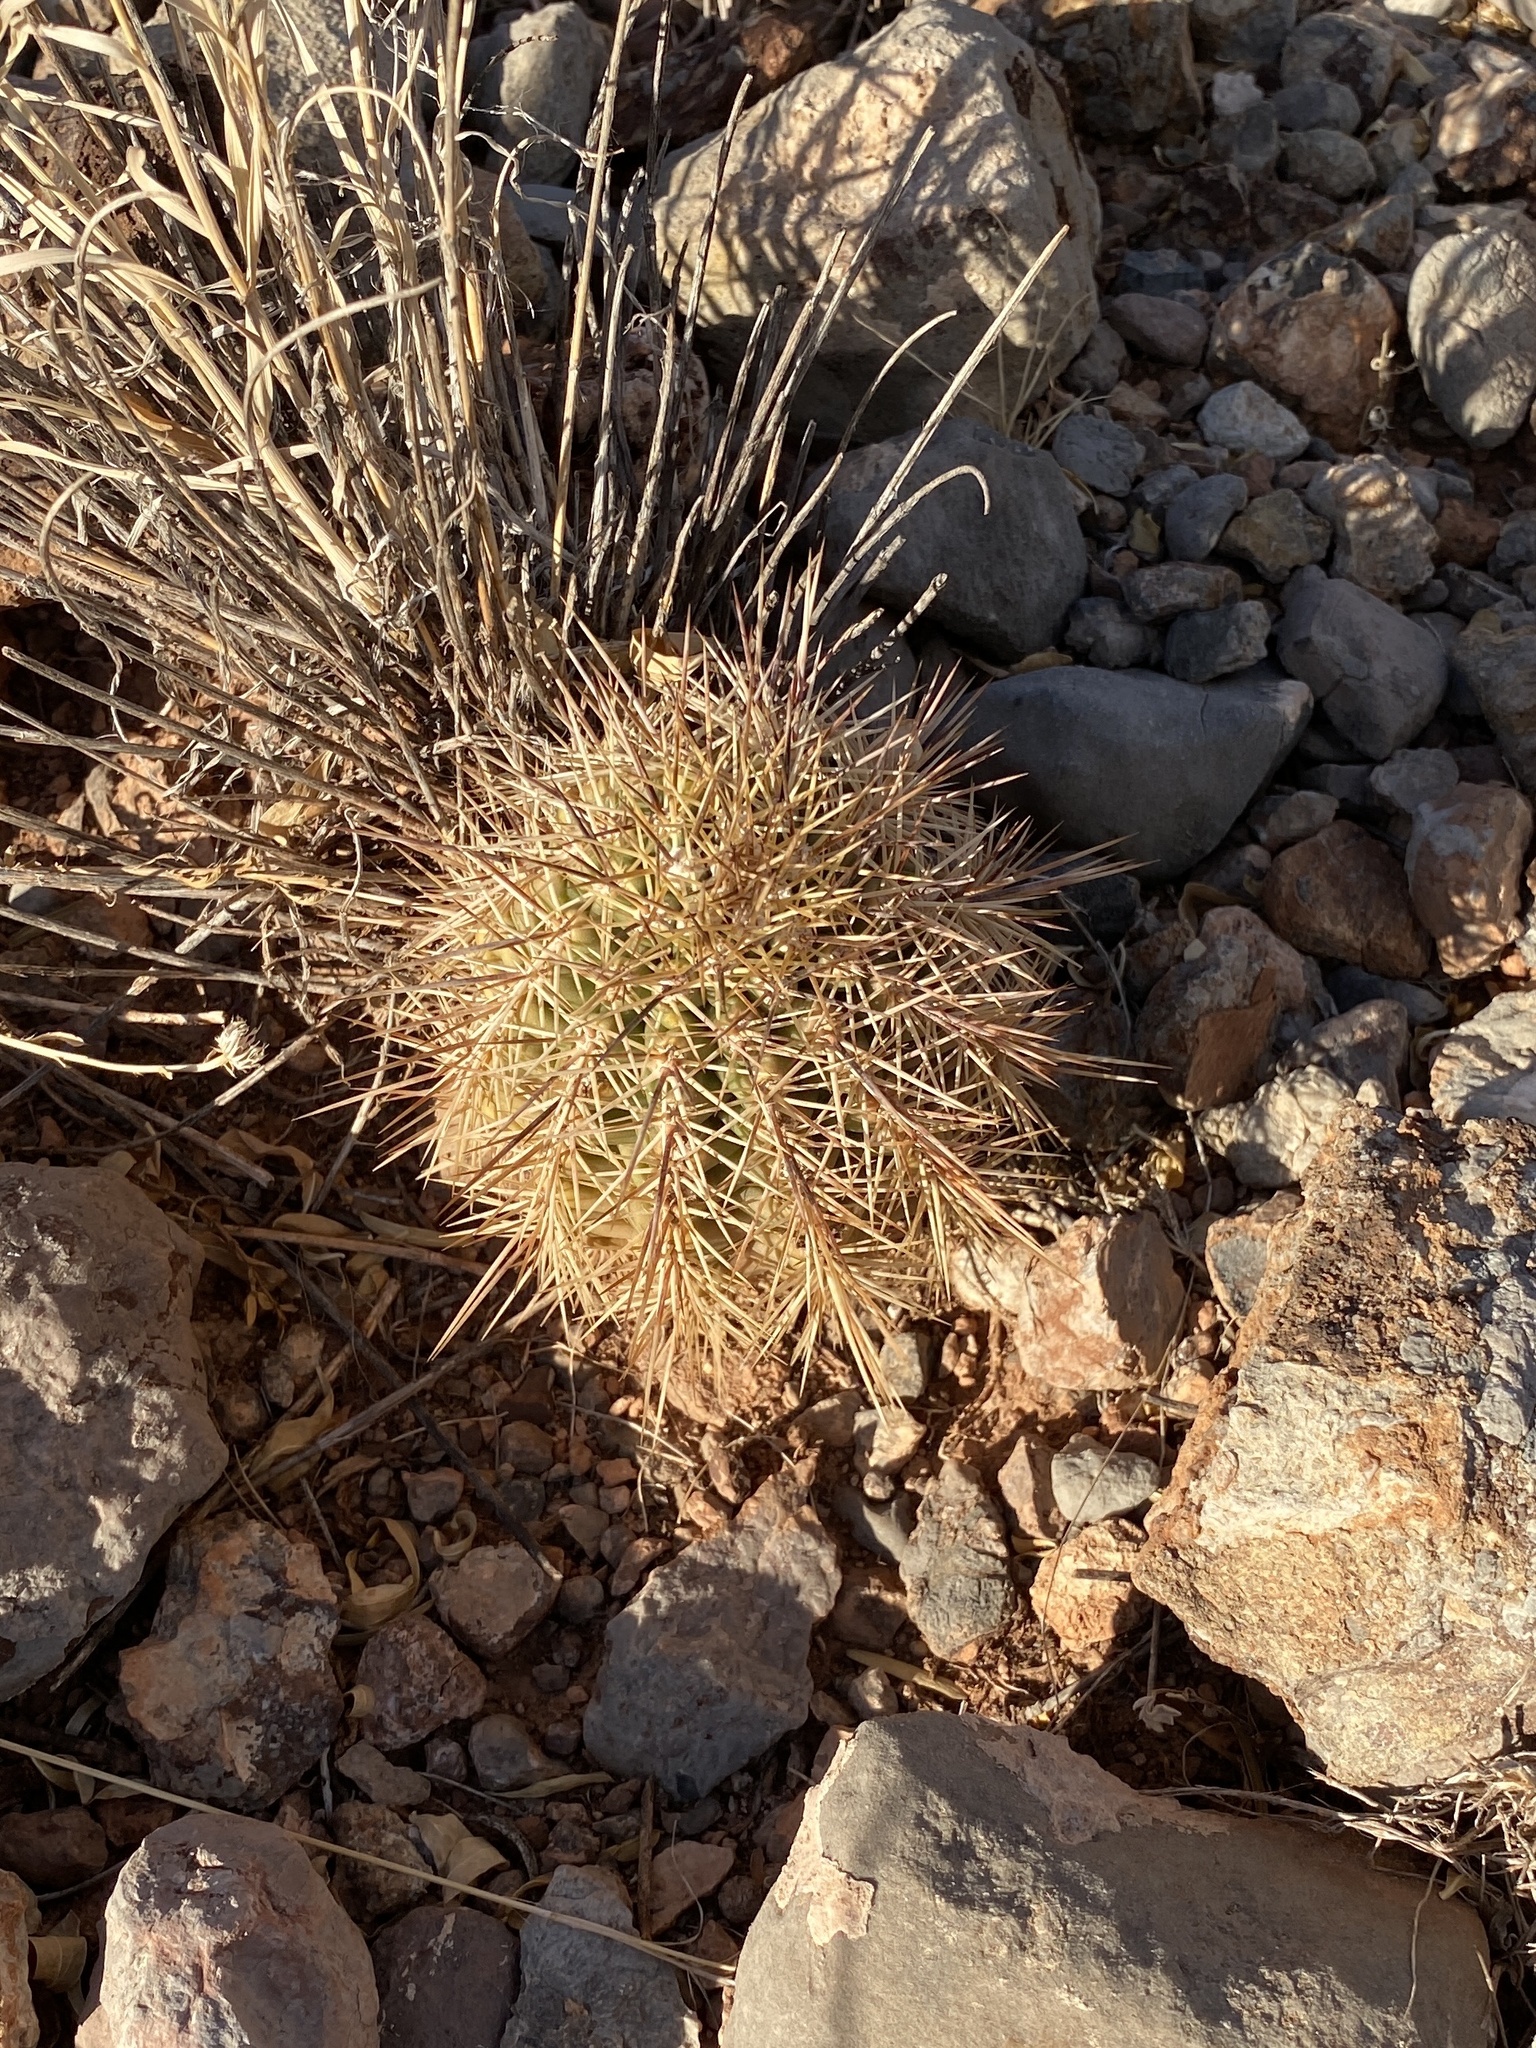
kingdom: Plantae
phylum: Tracheophyta
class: Magnoliopsida
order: Caryophyllales
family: Cactaceae
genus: Echinocereus
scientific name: Echinocereus coccineus
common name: Scarlet hedgehog cactus
